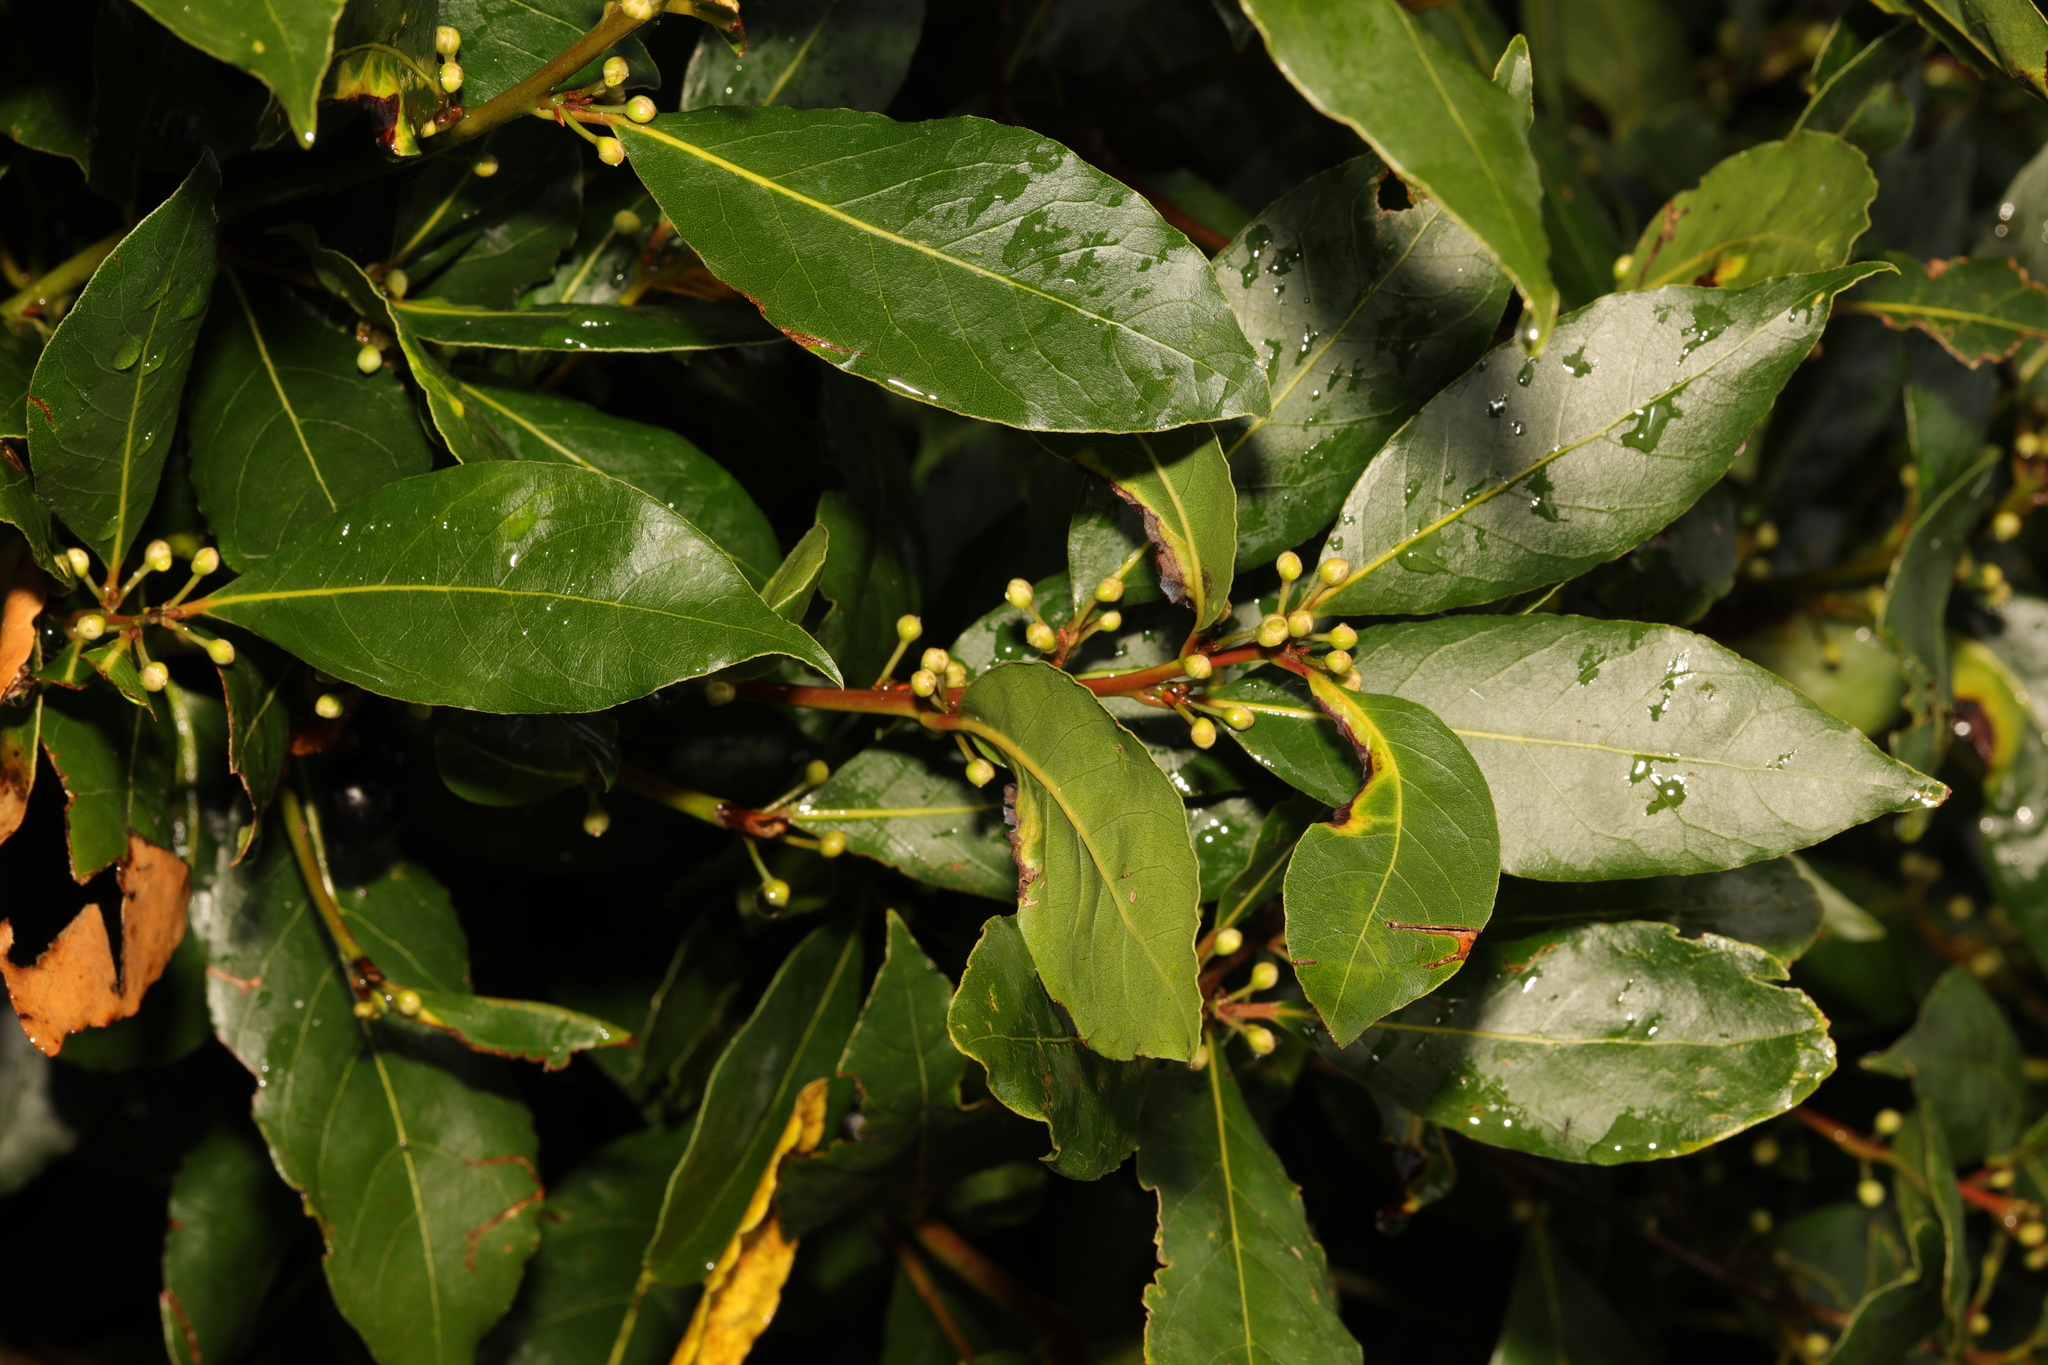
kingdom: Plantae
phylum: Tracheophyta
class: Magnoliopsida
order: Laurales
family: Lauraceae
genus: Laurus
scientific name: Laurus nobilis
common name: Bay
